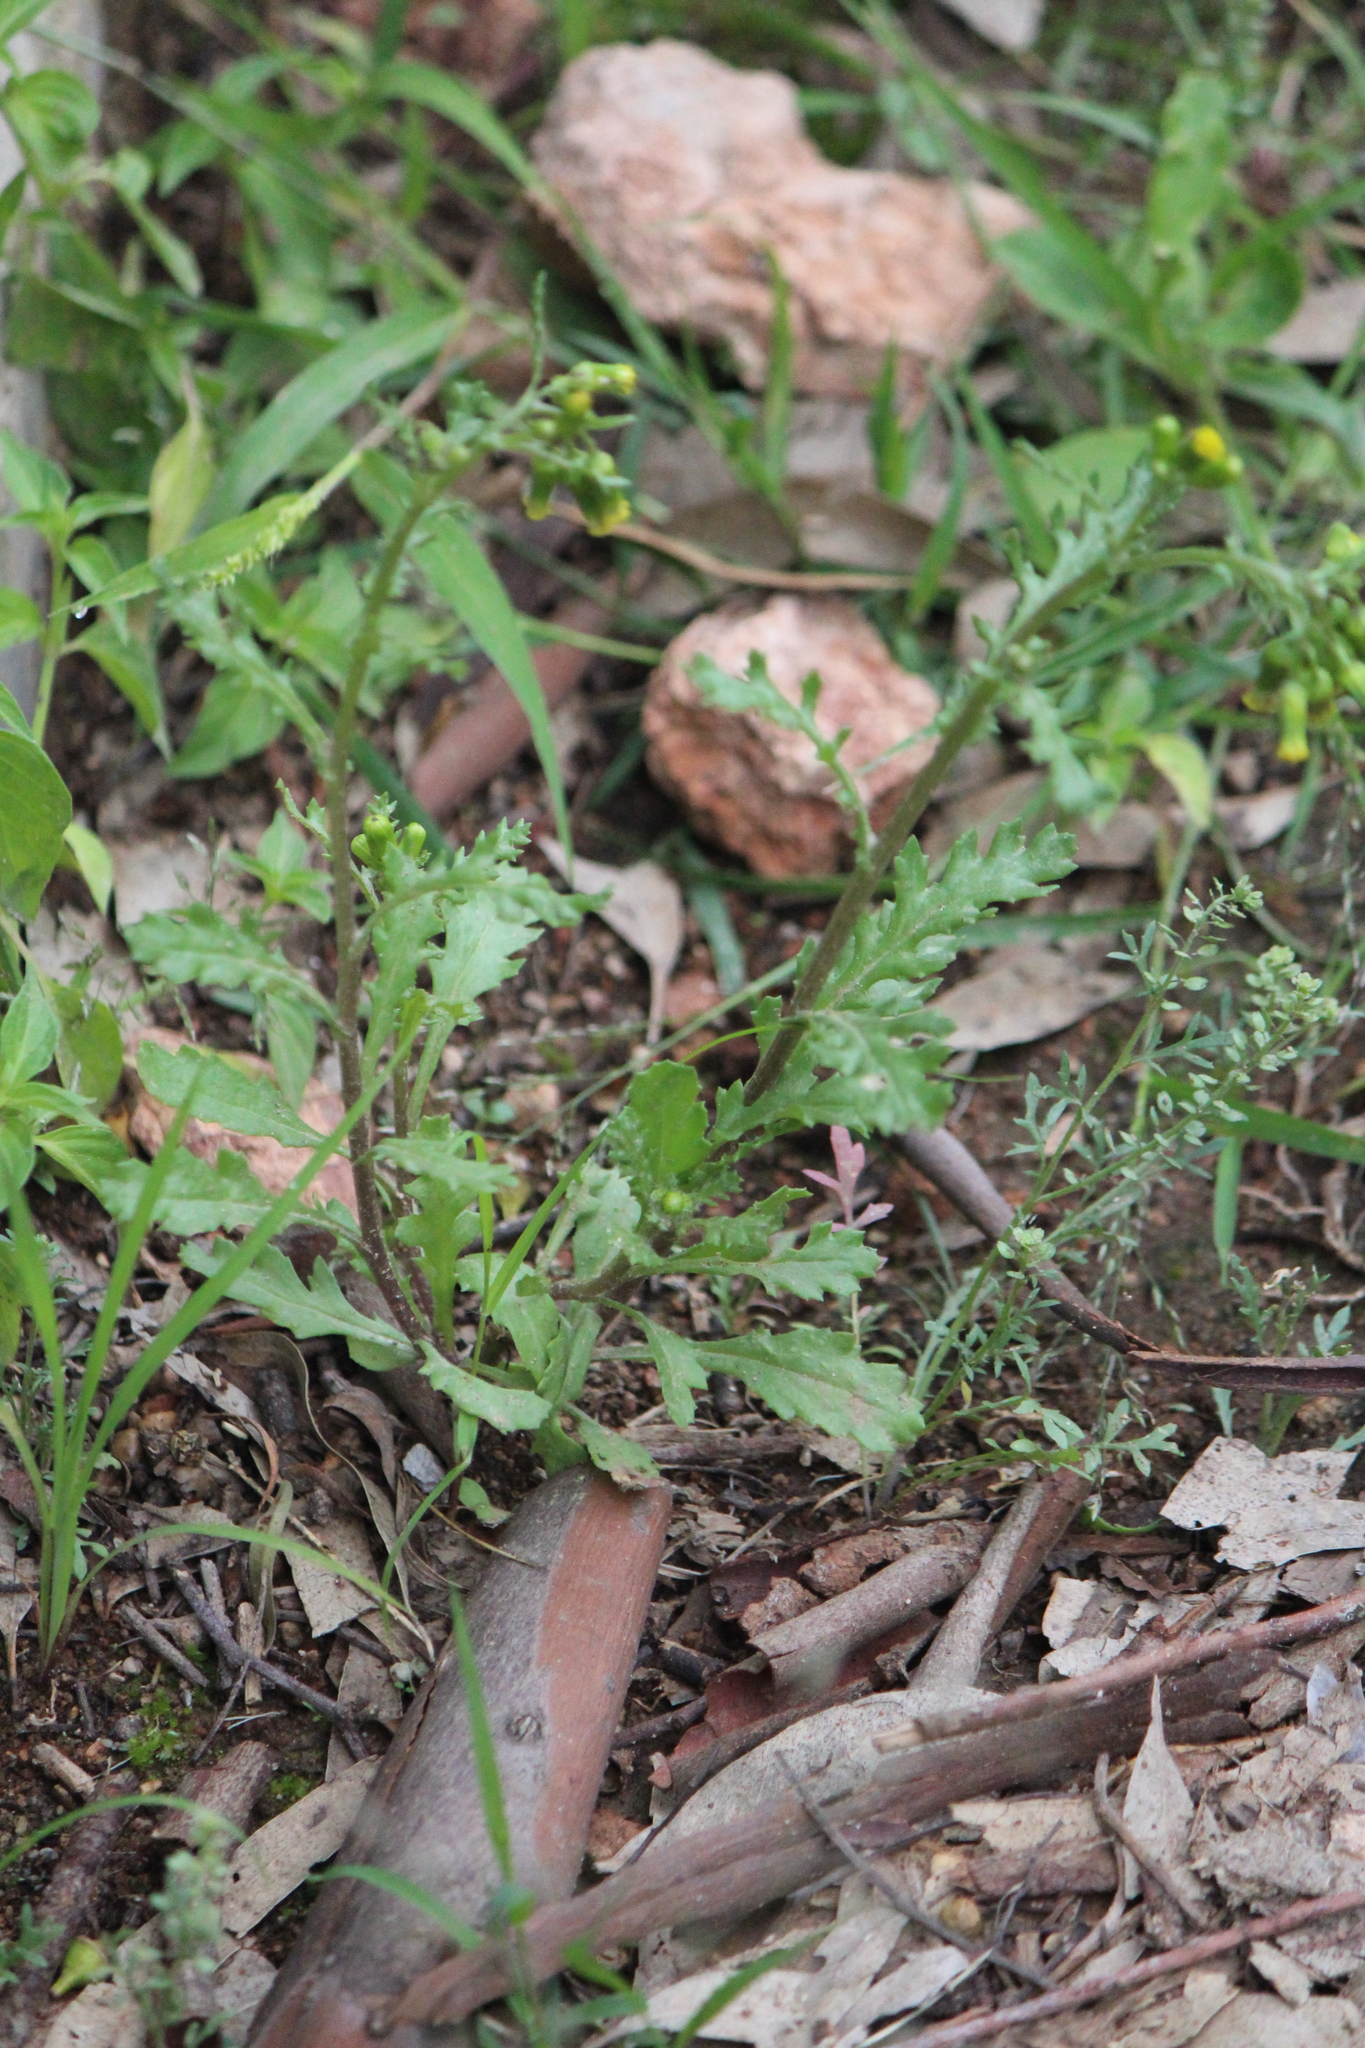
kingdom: Plantae
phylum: Tracheophyta
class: Magnoliopsida
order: Asterales
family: Asteraceae
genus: Senecio
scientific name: Senecio vulgaris
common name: Old-man-in-the-spring
